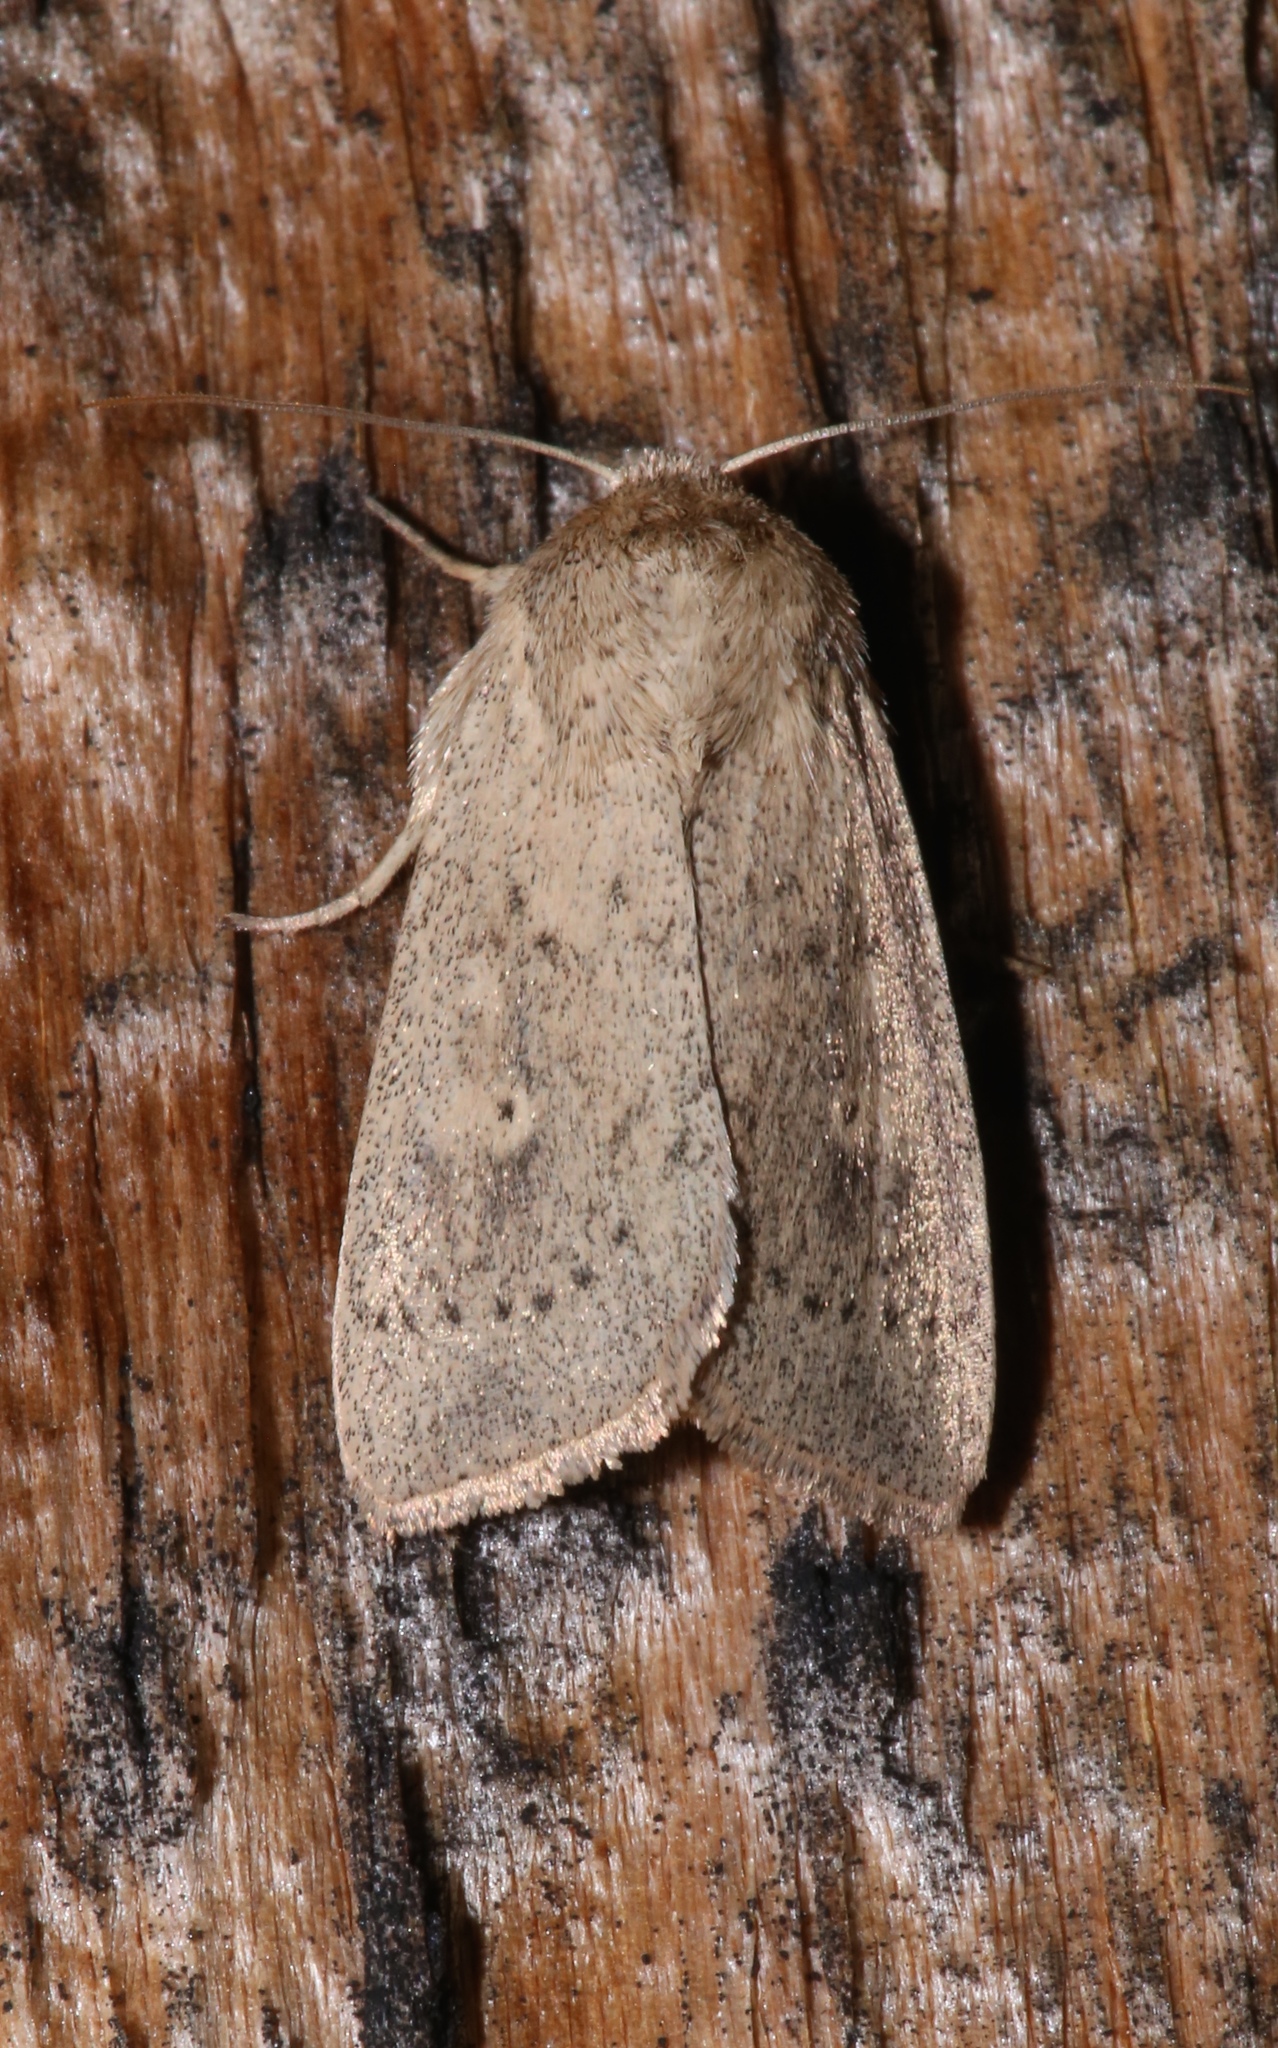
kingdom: Animalia
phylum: Arthropoda
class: Insecta
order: Lepidoptera
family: Noctuidae
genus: Leucania
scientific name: Leucania inermis
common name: Unarmed wainscot
